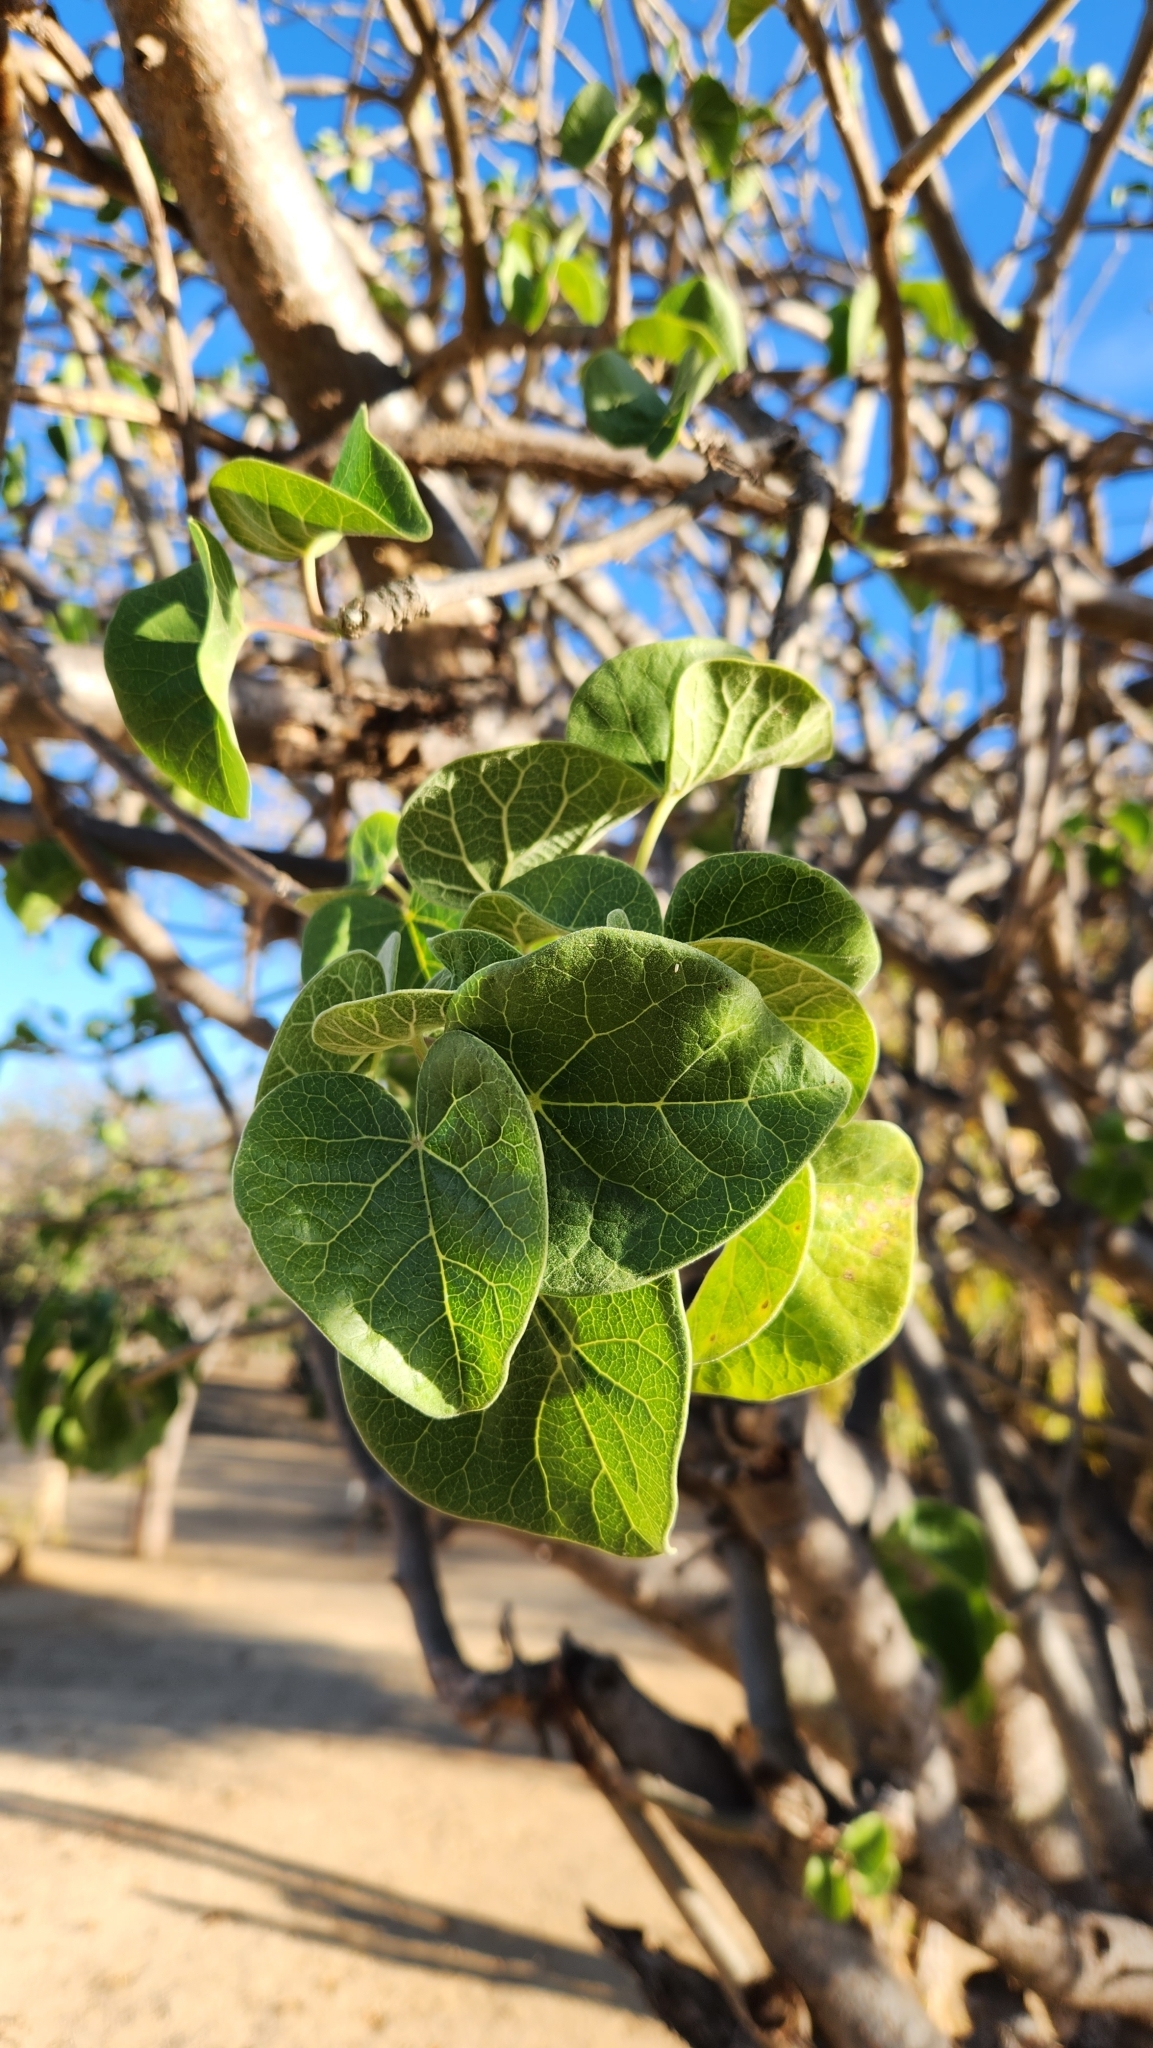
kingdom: Plantae
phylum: Tracheophyta
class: Magnoliopsida
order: Malpighiales
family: Euphorbiaceae
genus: Jatropha
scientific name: Jatropha cinerea
